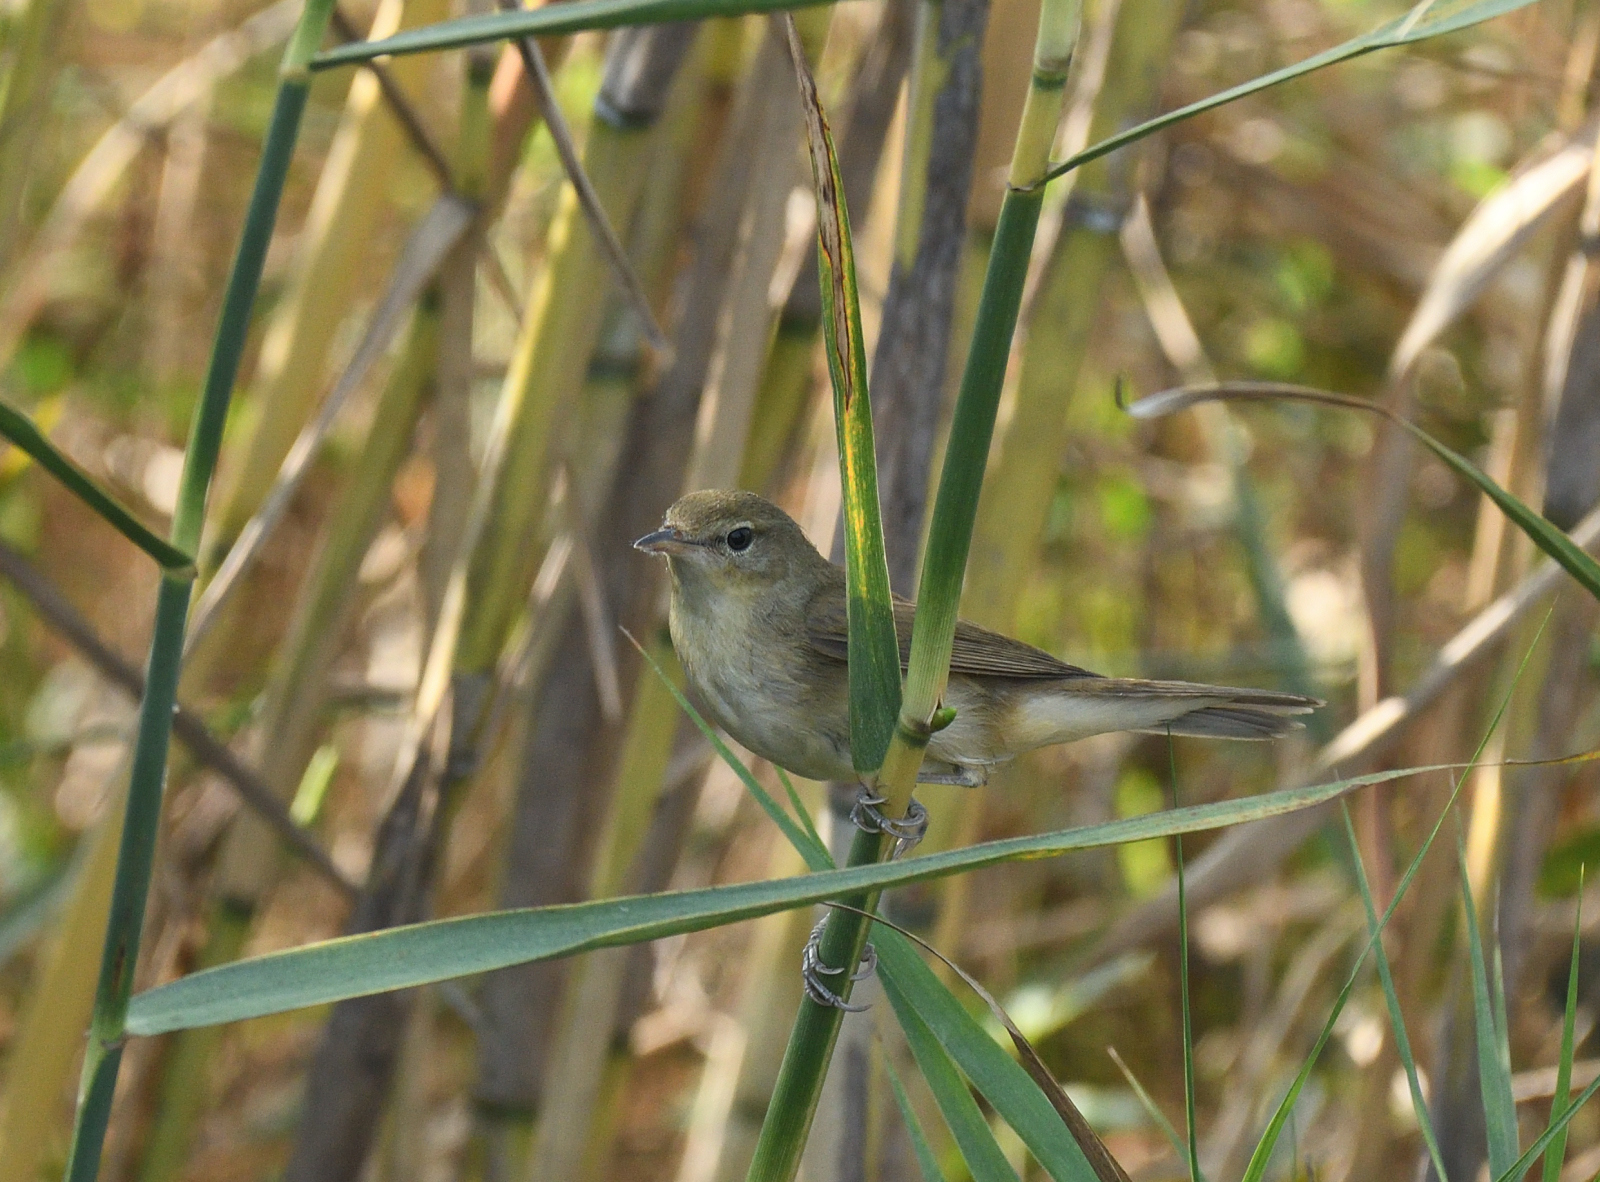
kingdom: Animalia
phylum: Chordata
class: Aves
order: Passeriformes
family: Acrocephalidae
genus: Acrocephalus
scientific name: Acrocephalus dumetorum
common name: Blyth's reed warbler
